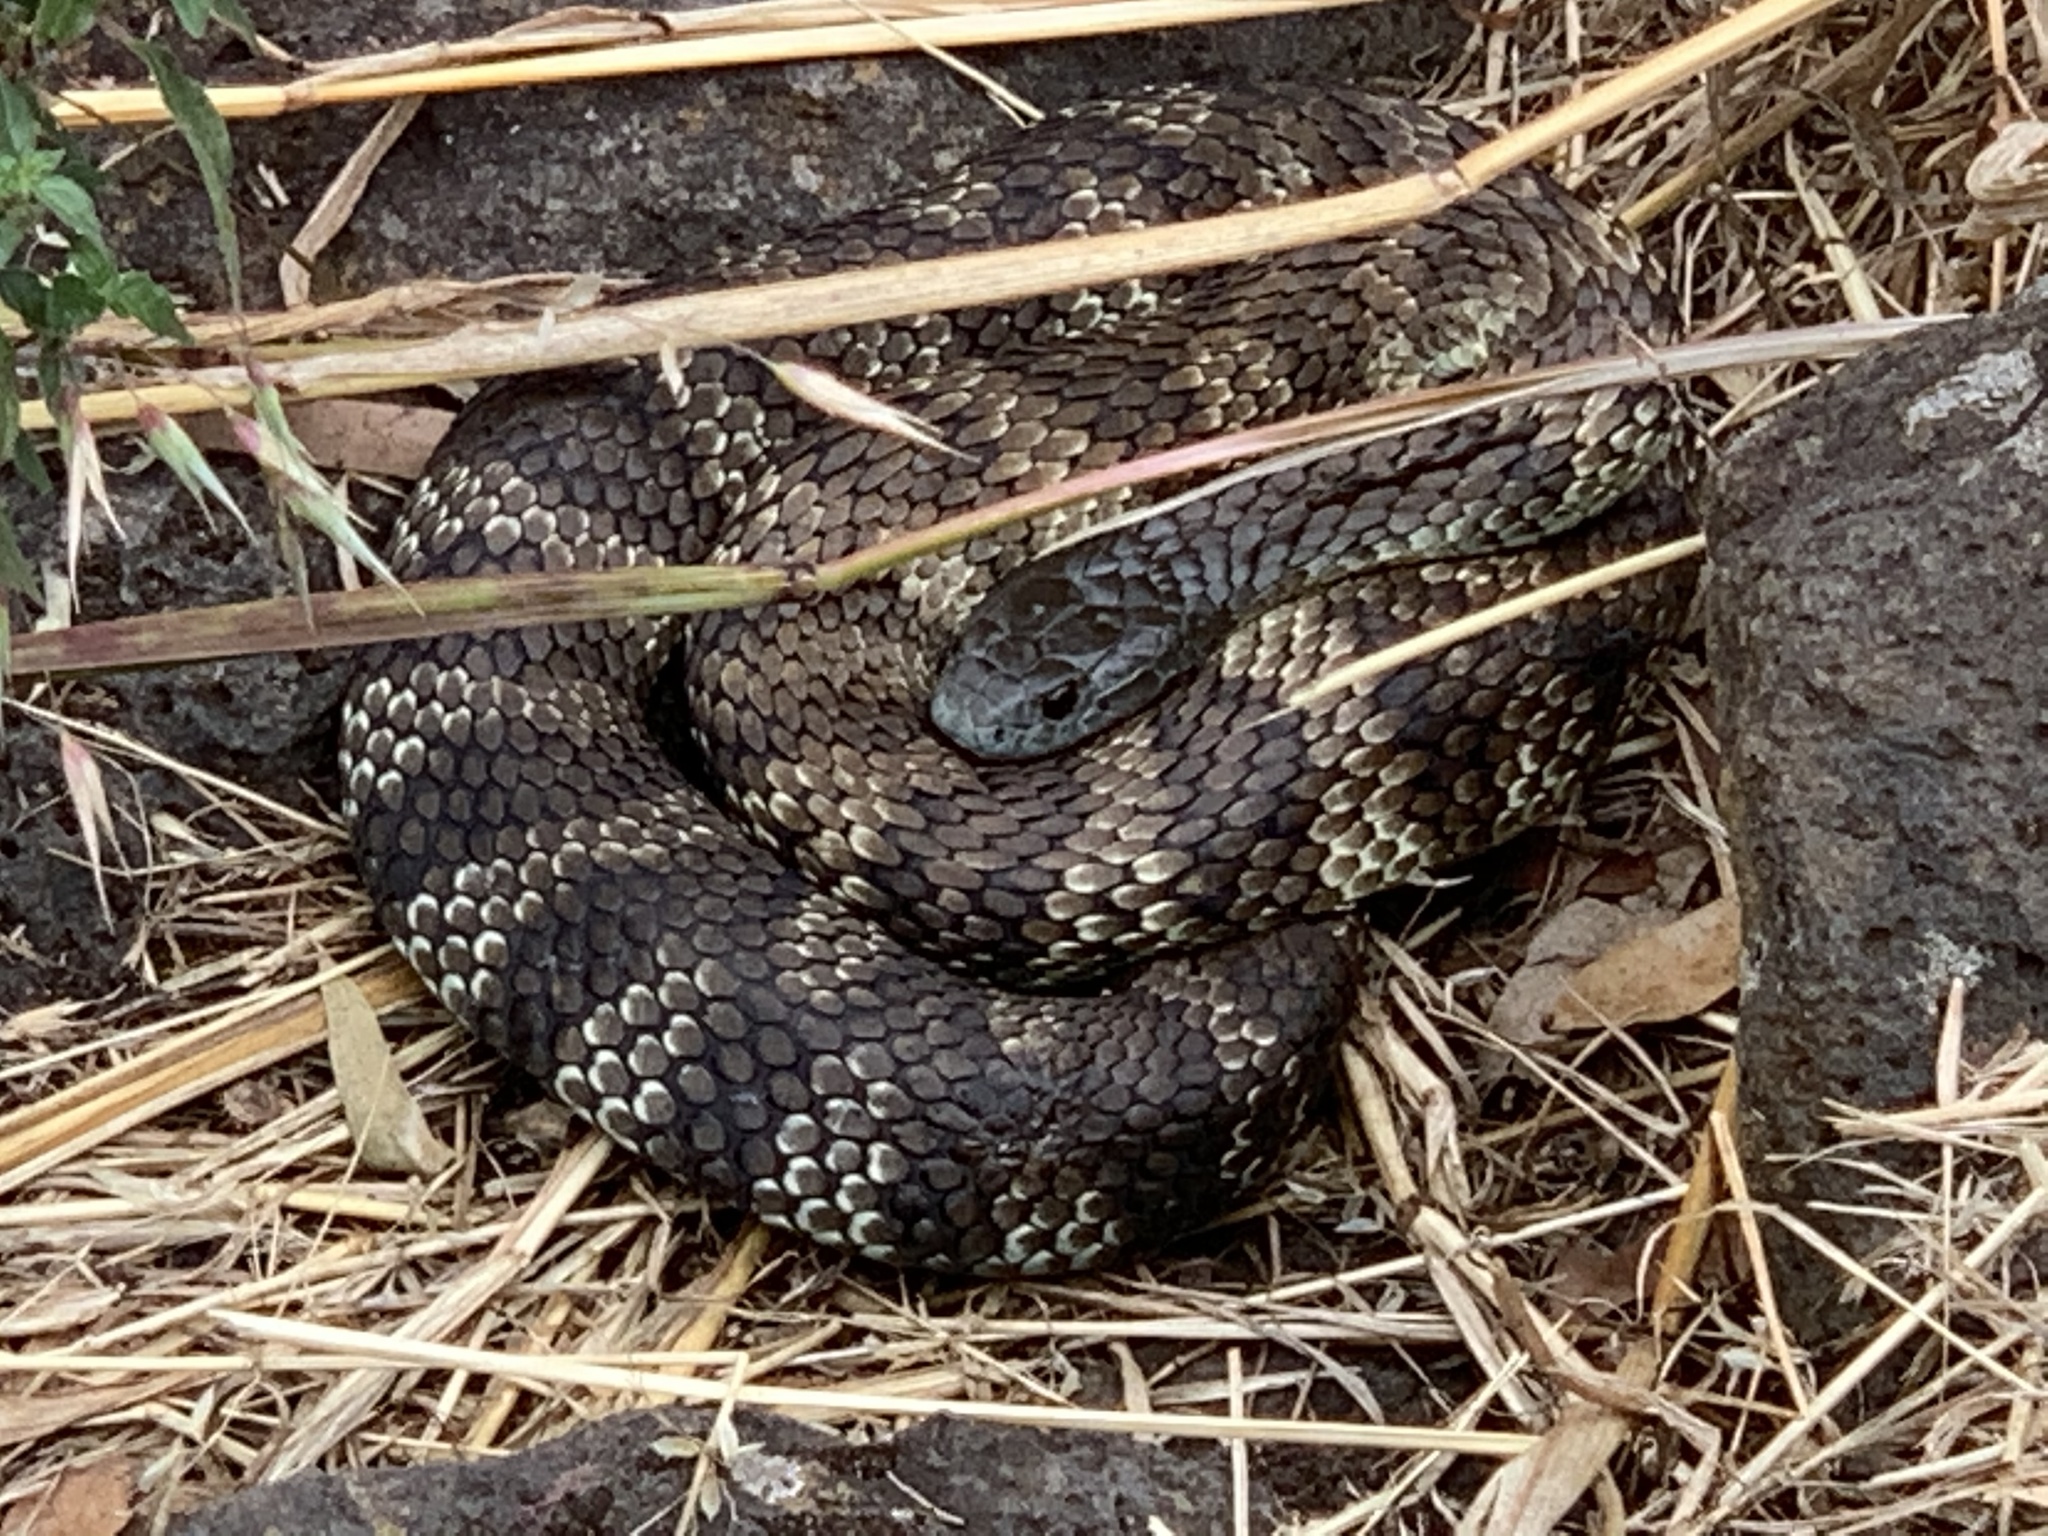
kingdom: Animalia
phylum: Chordata
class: Squamata
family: Elapidae
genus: Notechis
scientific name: Notechis scutatus
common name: Mainland tiger snake
